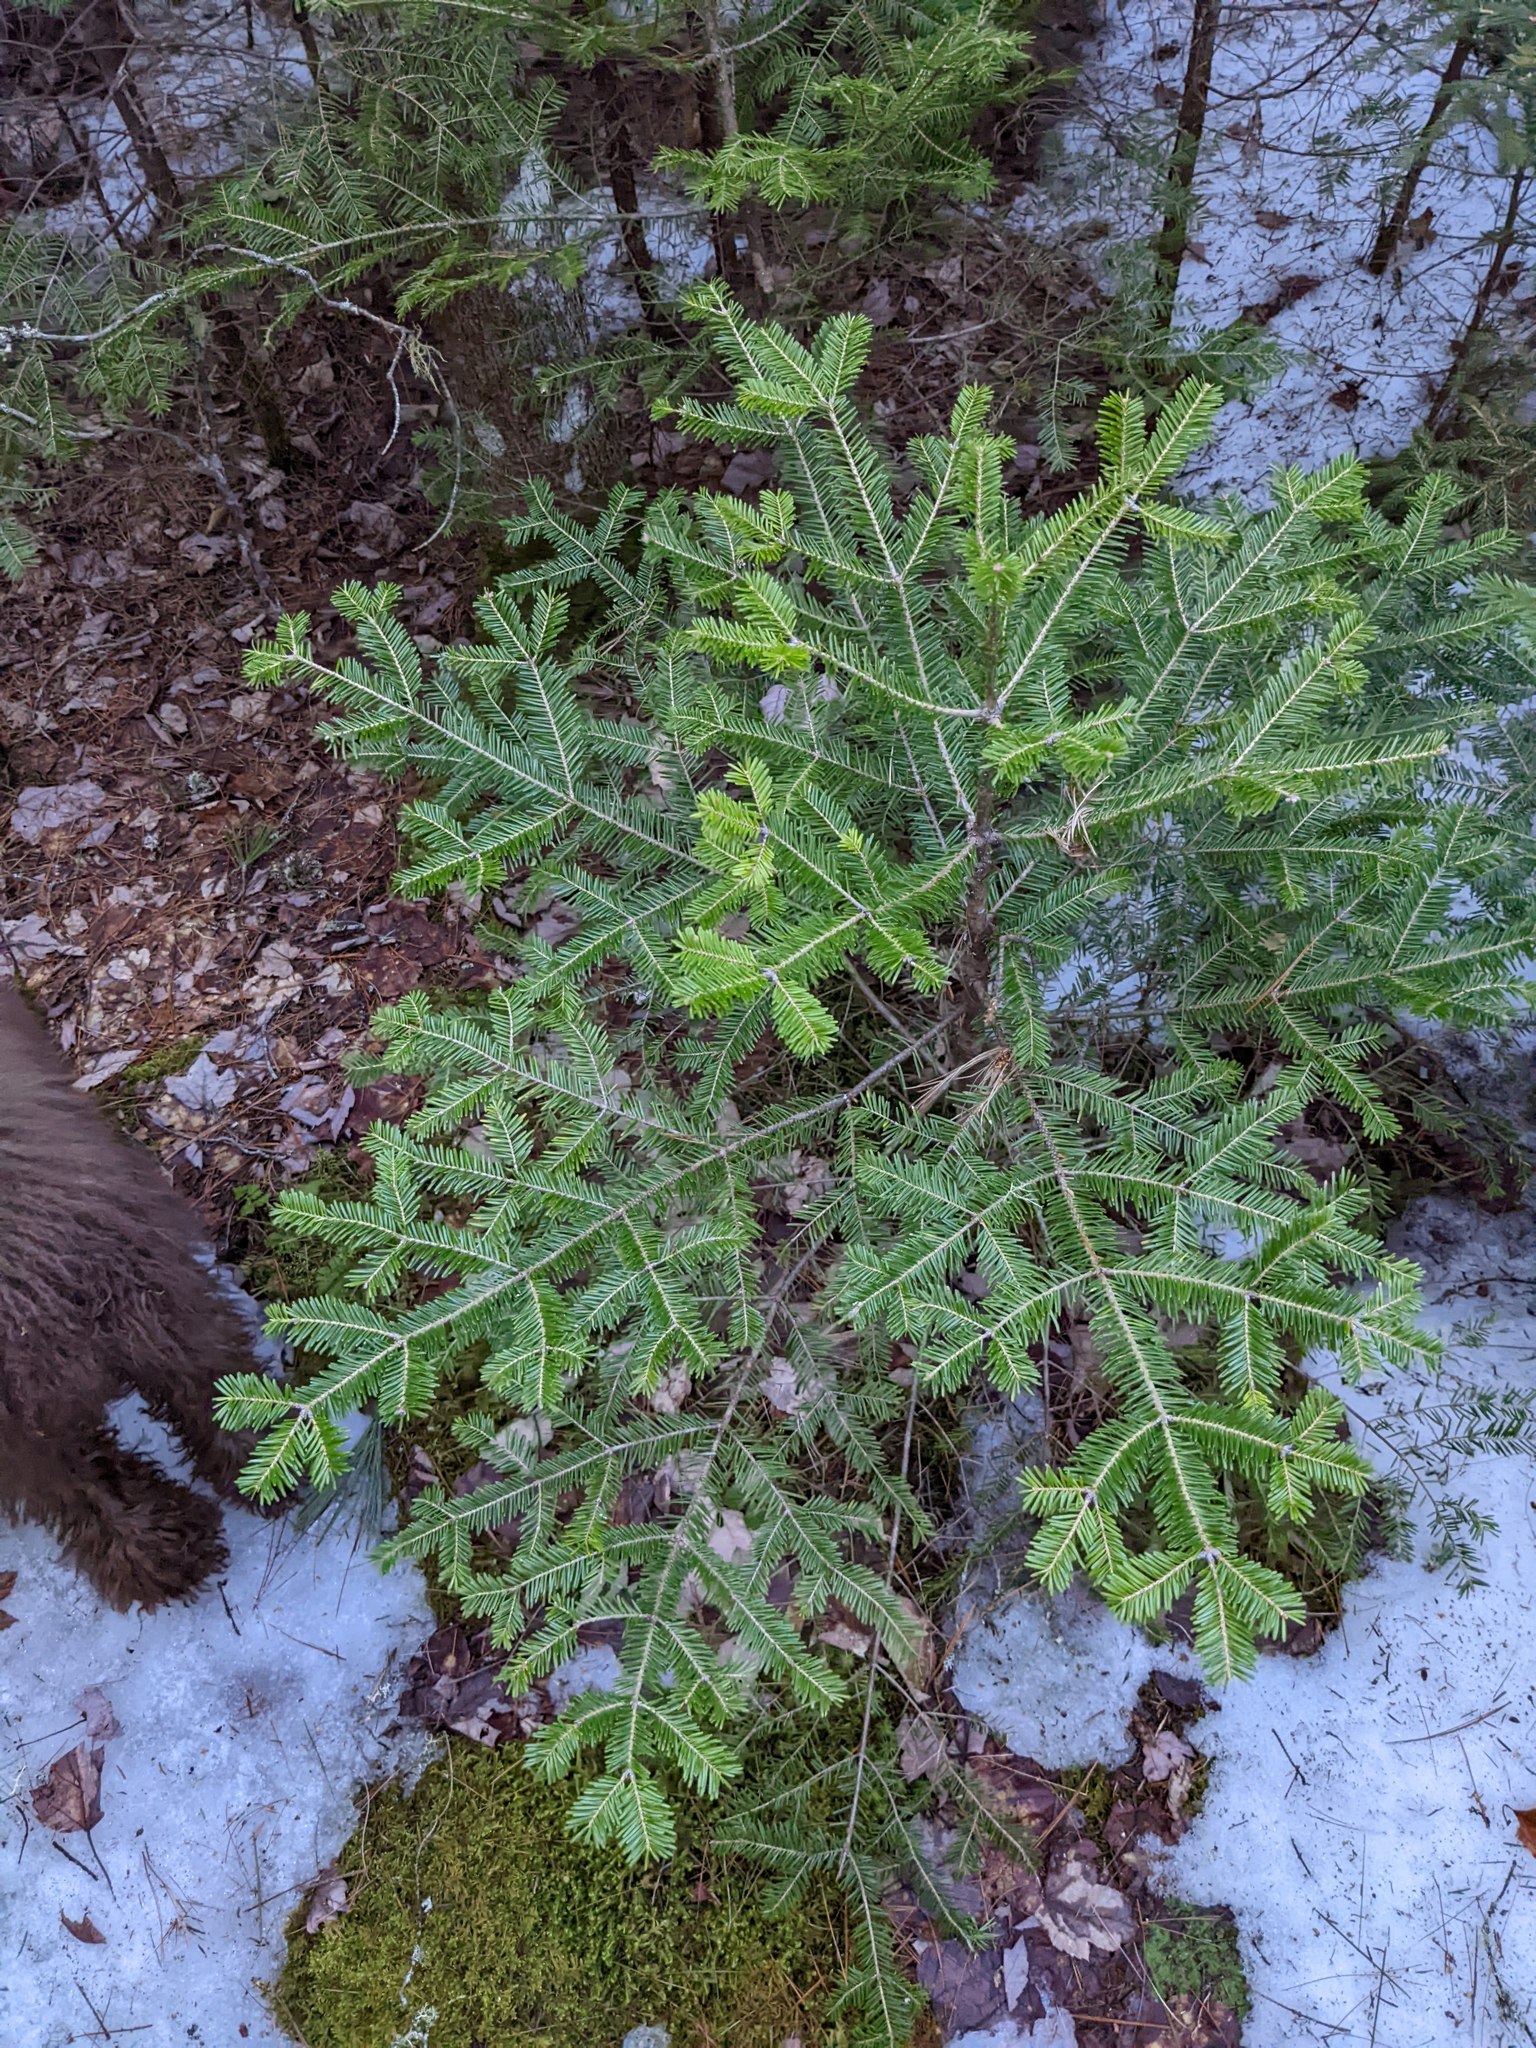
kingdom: Plantae
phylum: Tracheophyta
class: Pinopsida
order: Pinales
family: Pinaceae
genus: Abies
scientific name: Abies balsamea
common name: Balsam fir
